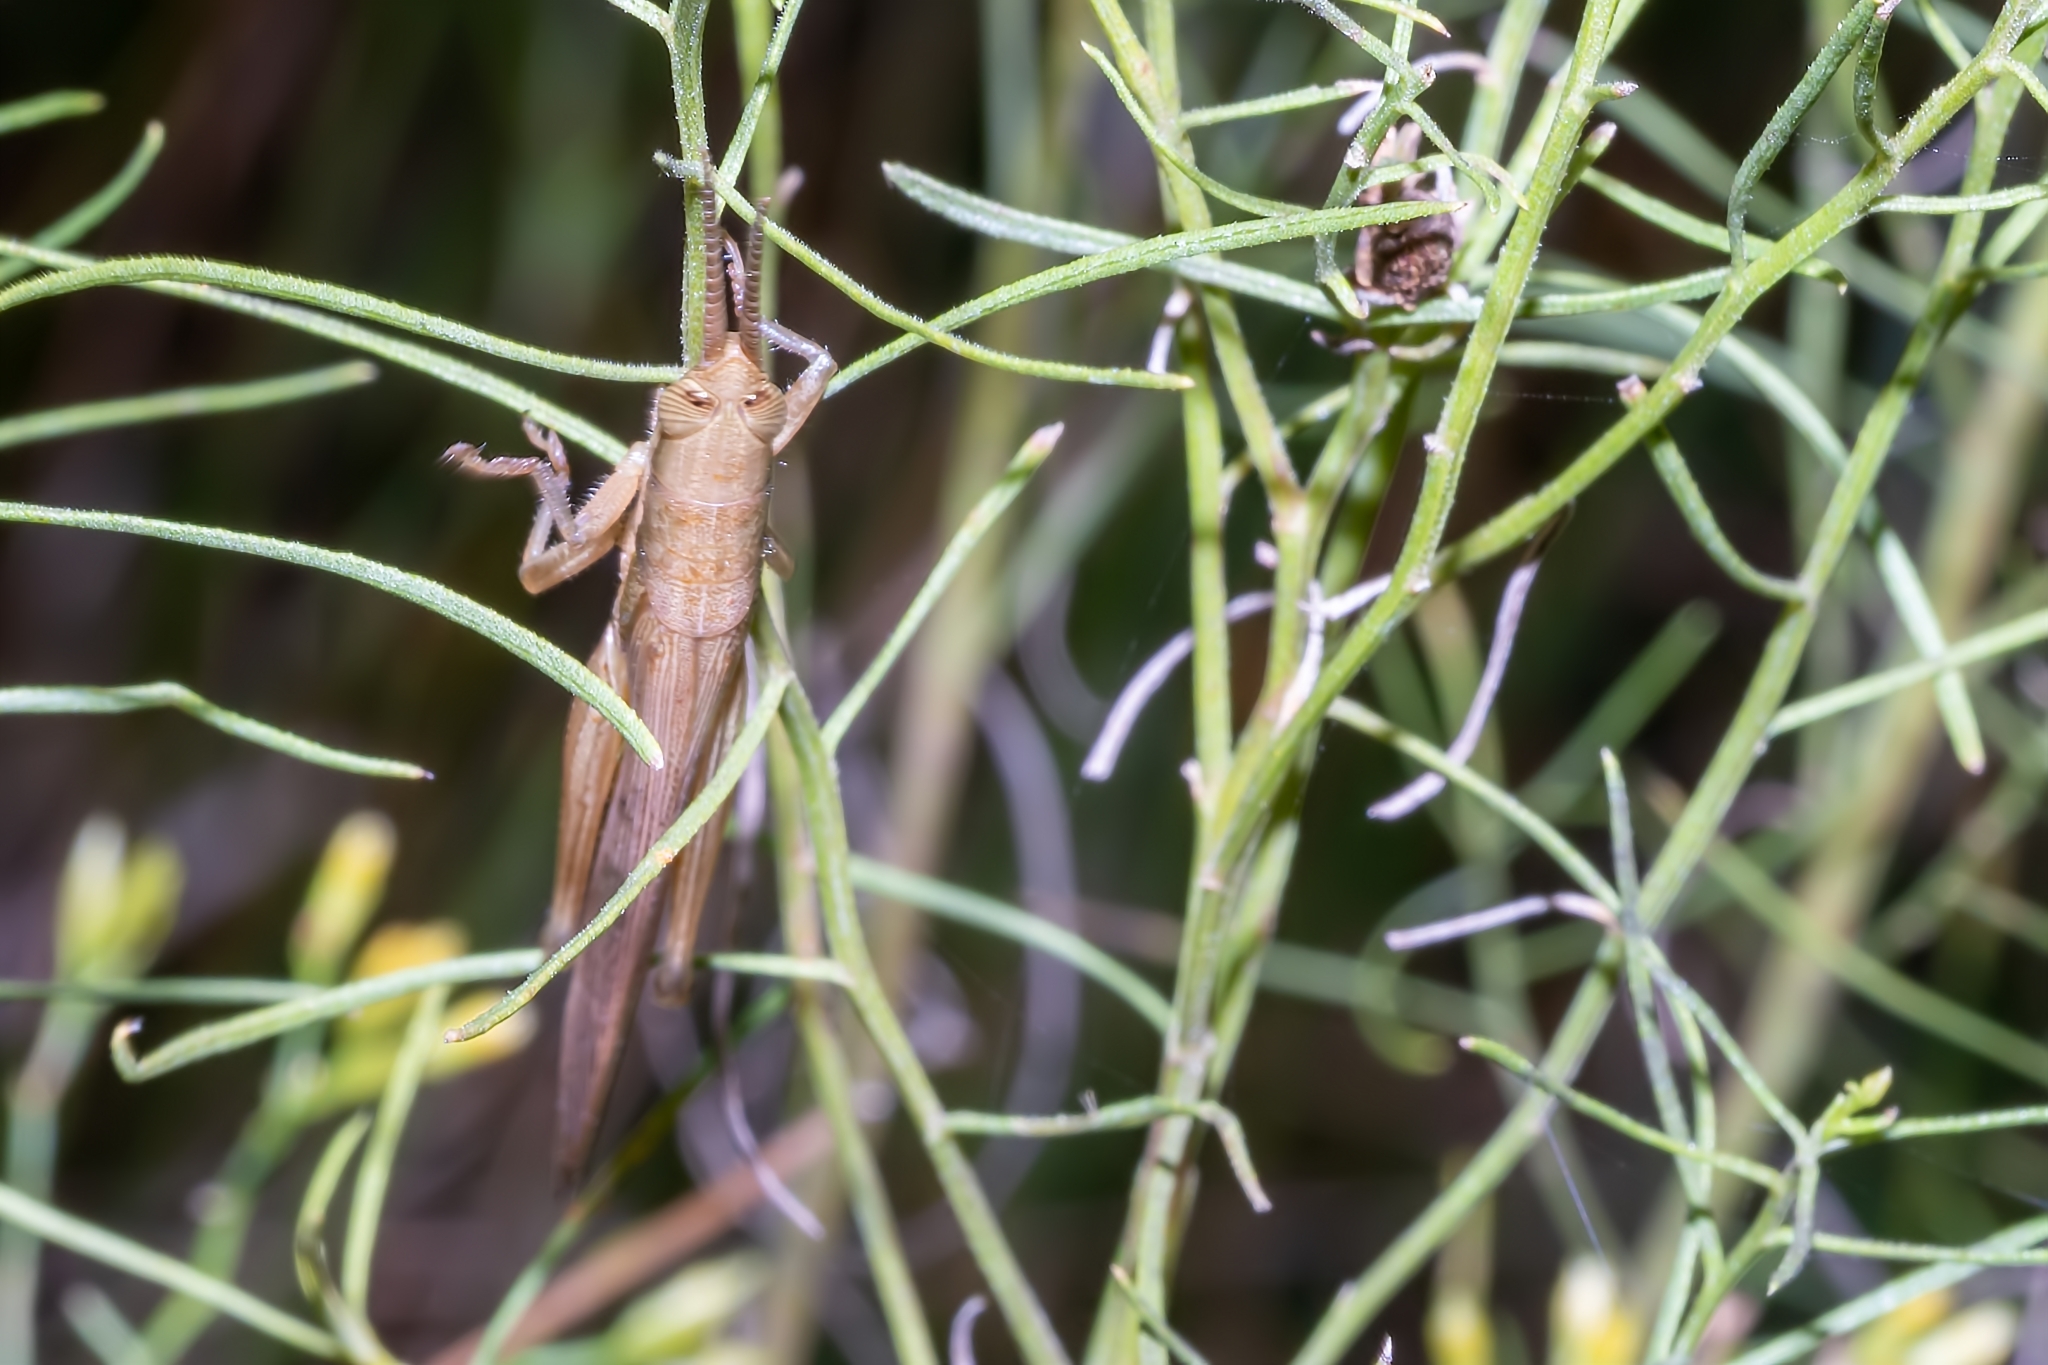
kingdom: Animalia
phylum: Arthropoda
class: Insecta
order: Orthoptera
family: Acrididae
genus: Leptysma
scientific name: Leptysma marginicollis
